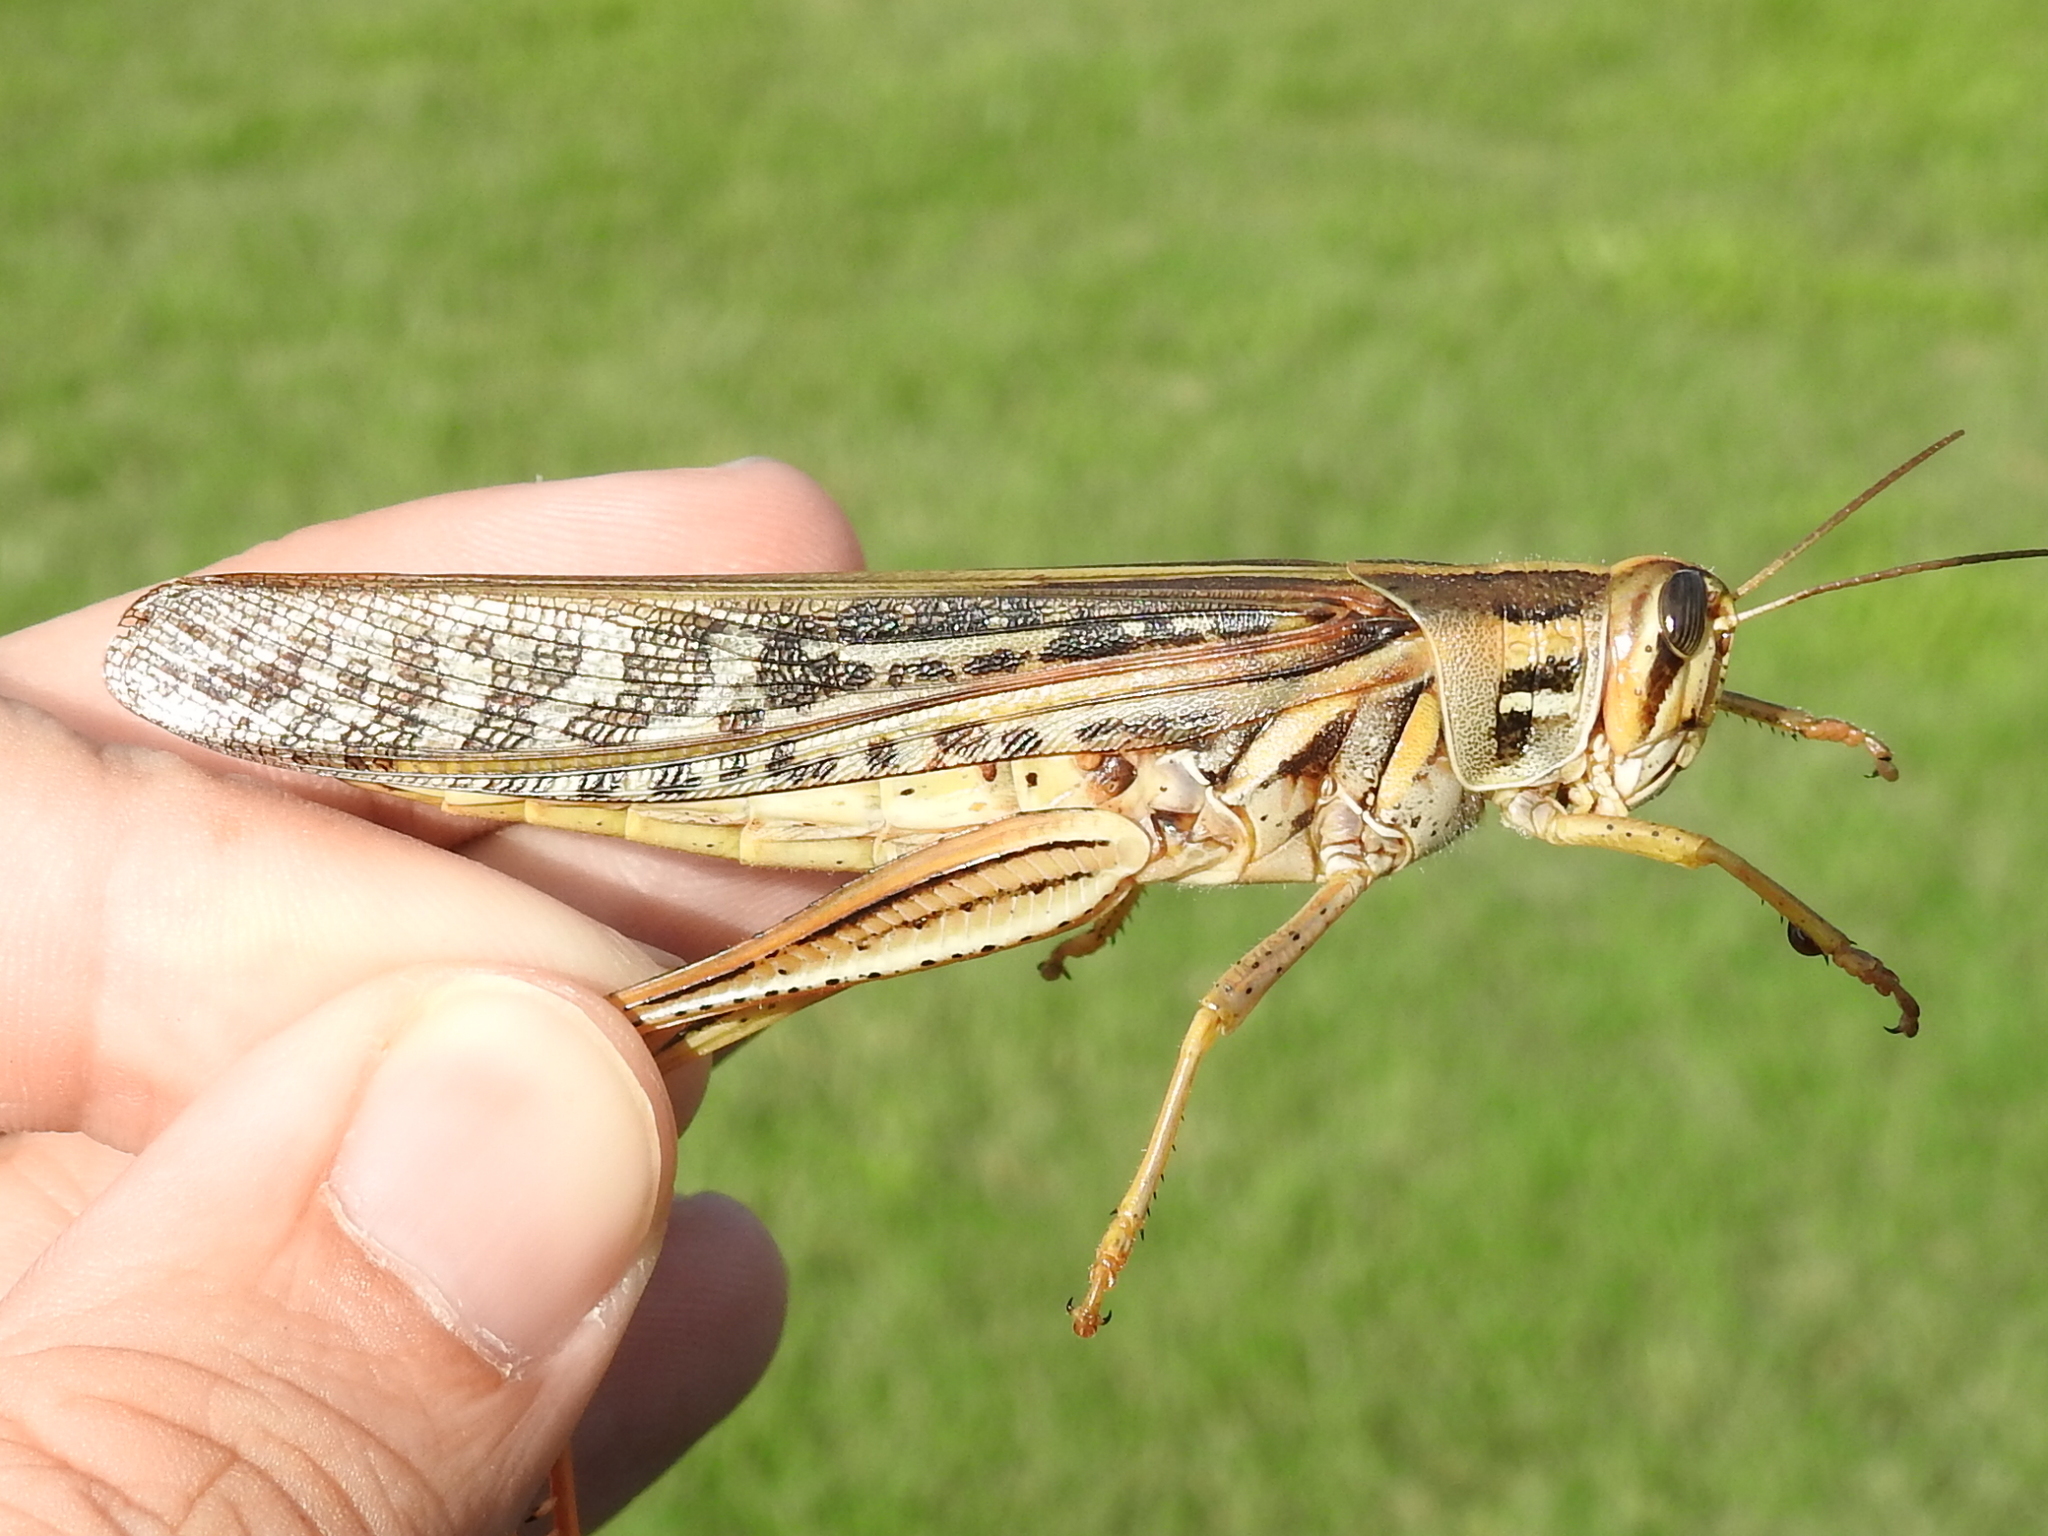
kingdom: Animalia
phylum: Arthropoda
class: Insecta
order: Orthoptera
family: Acrididae
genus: Schistocerca
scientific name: Schistocerca americana
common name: American bird locust
